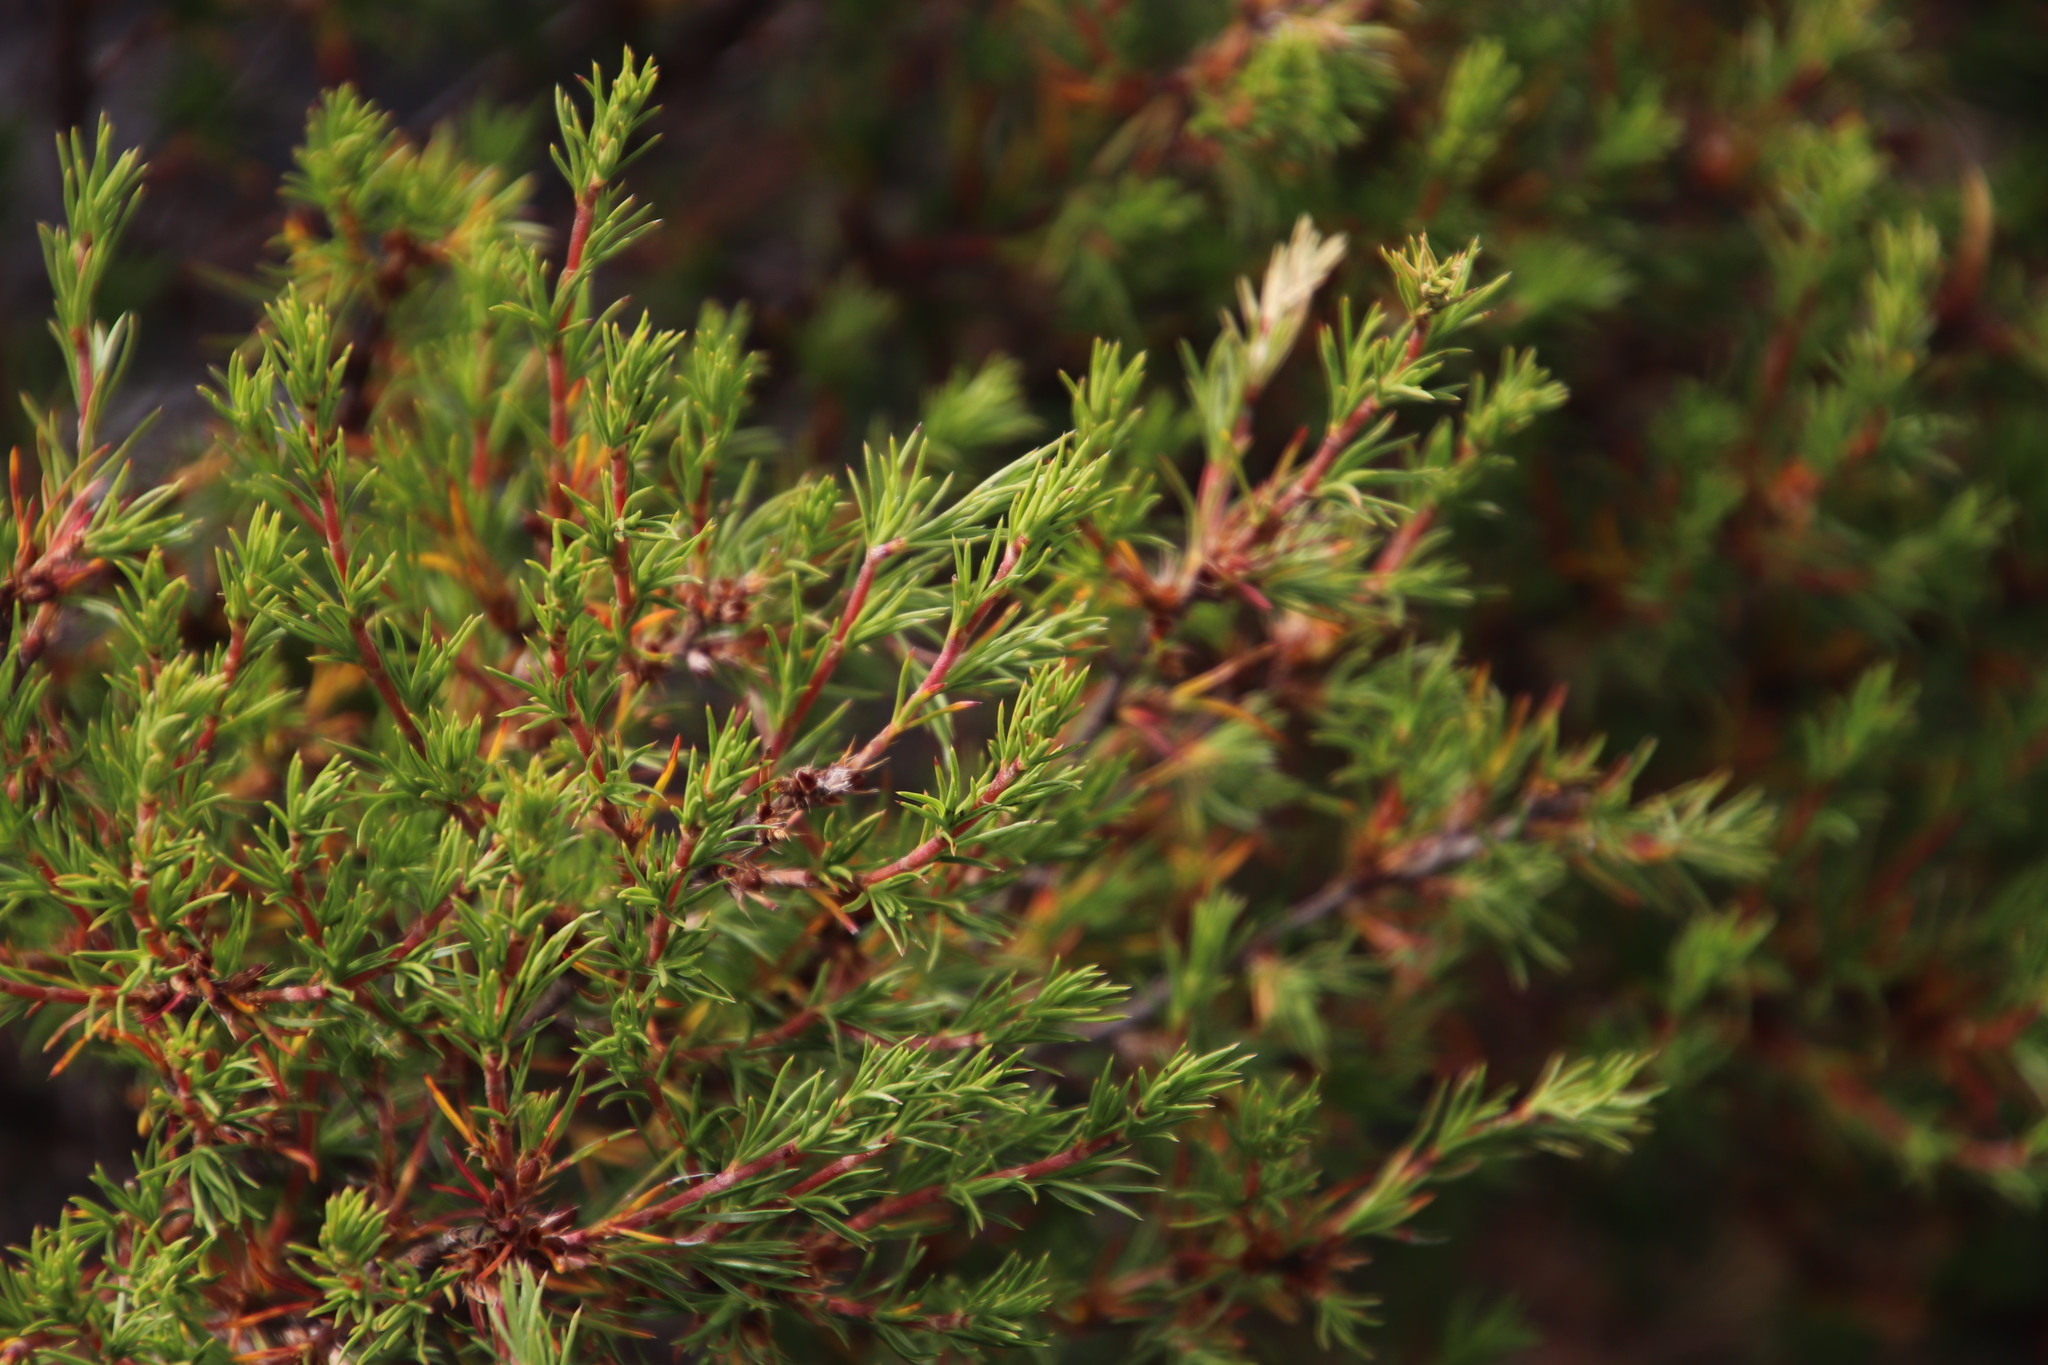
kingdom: Plantae
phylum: Tracheophyta
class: Magnoliopsida
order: Rosales
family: Rosaceae
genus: Cliffortia
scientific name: Cliffortia atrata
